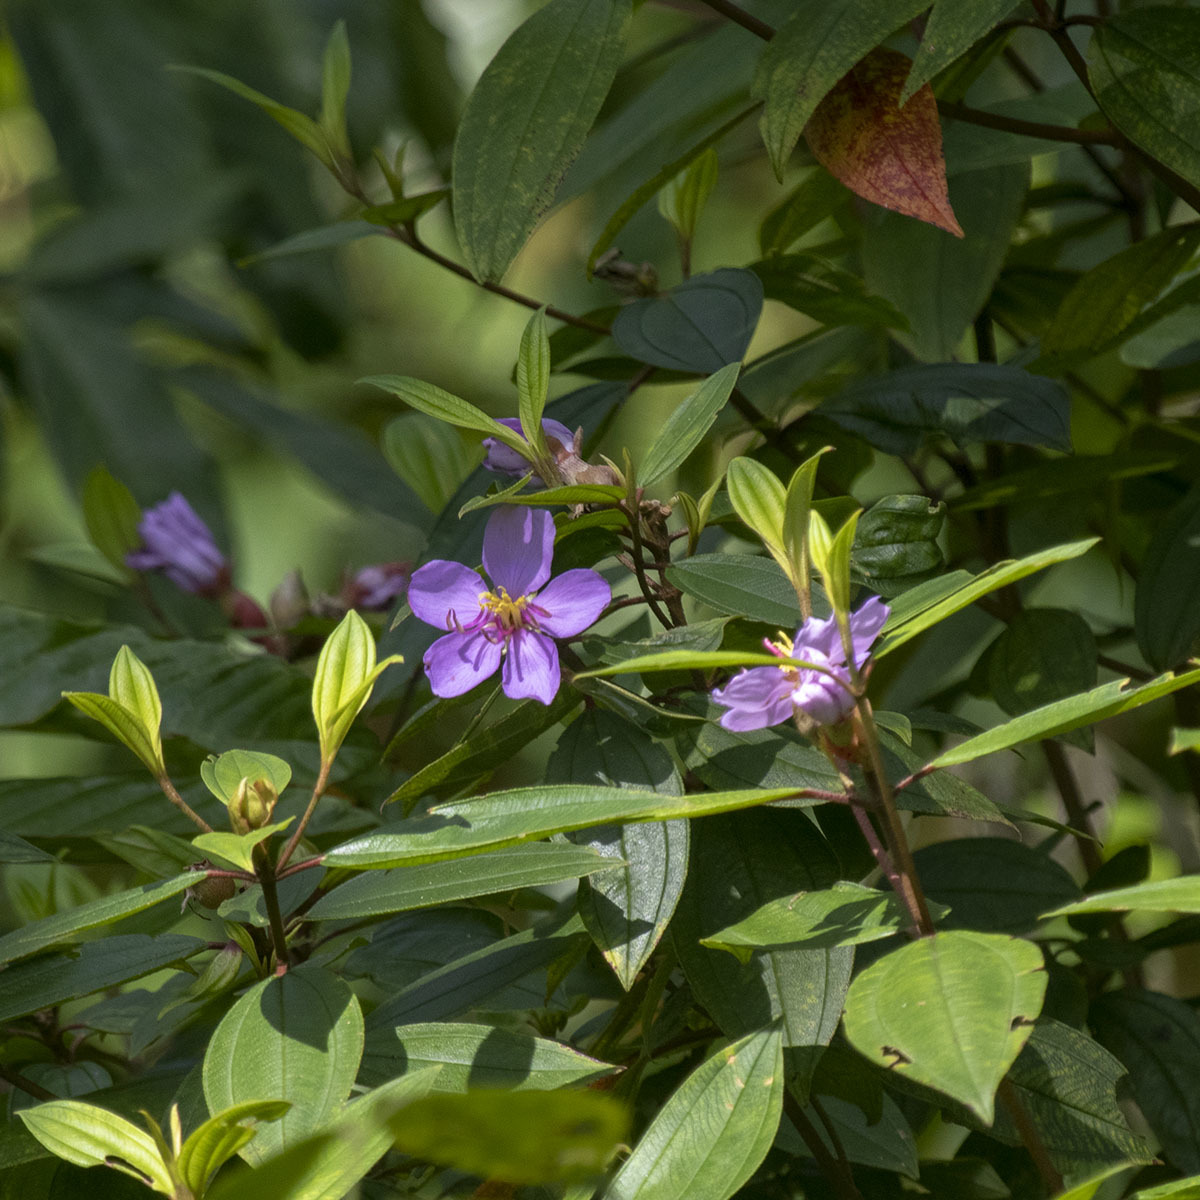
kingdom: Plantae
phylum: Tracheophyta
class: Magnoliopsida
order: Myrtales
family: Melastomataceae
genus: Melastoma
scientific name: Melastoma malabathricum
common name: Indian-rhododendron
